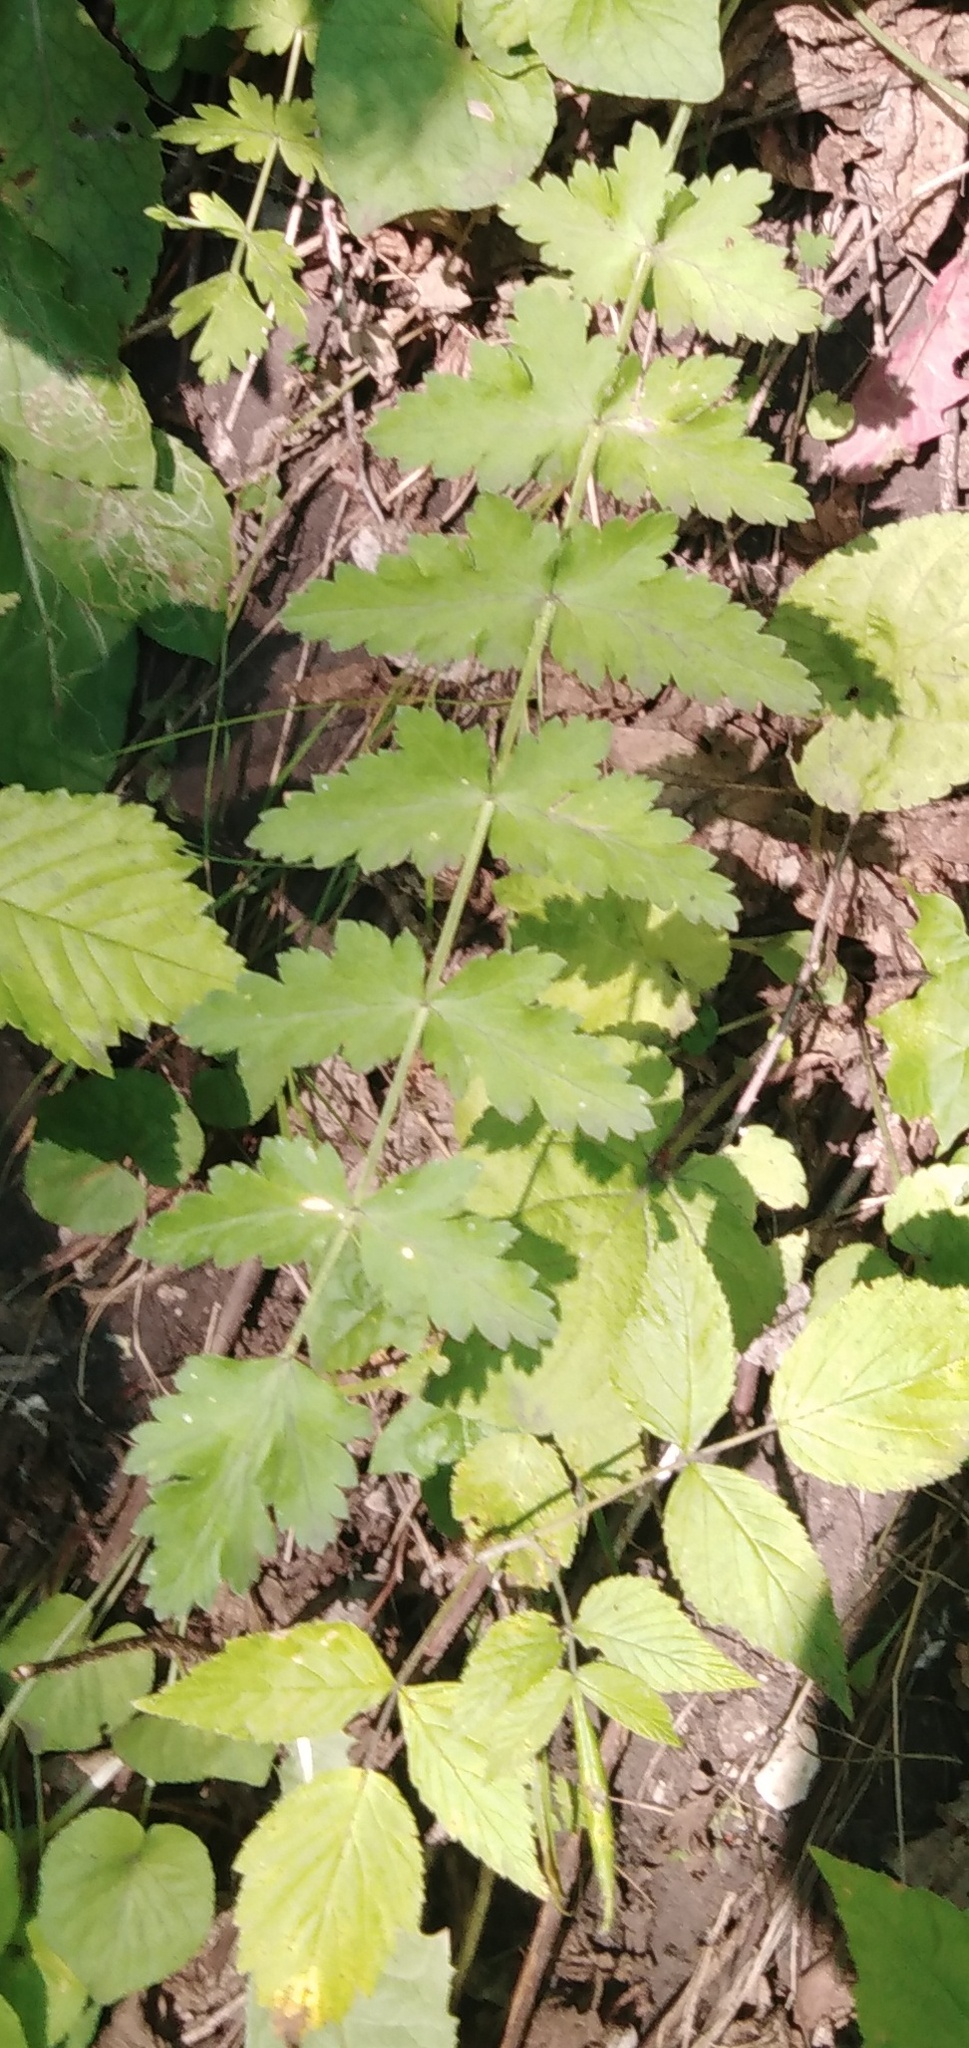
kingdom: Plantae
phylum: Tracheophyta
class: Magnoliopsida
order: Apiales
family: Apiaceae
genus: Pastinaca
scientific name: Pastinaca sativa
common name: Wild parsnip
